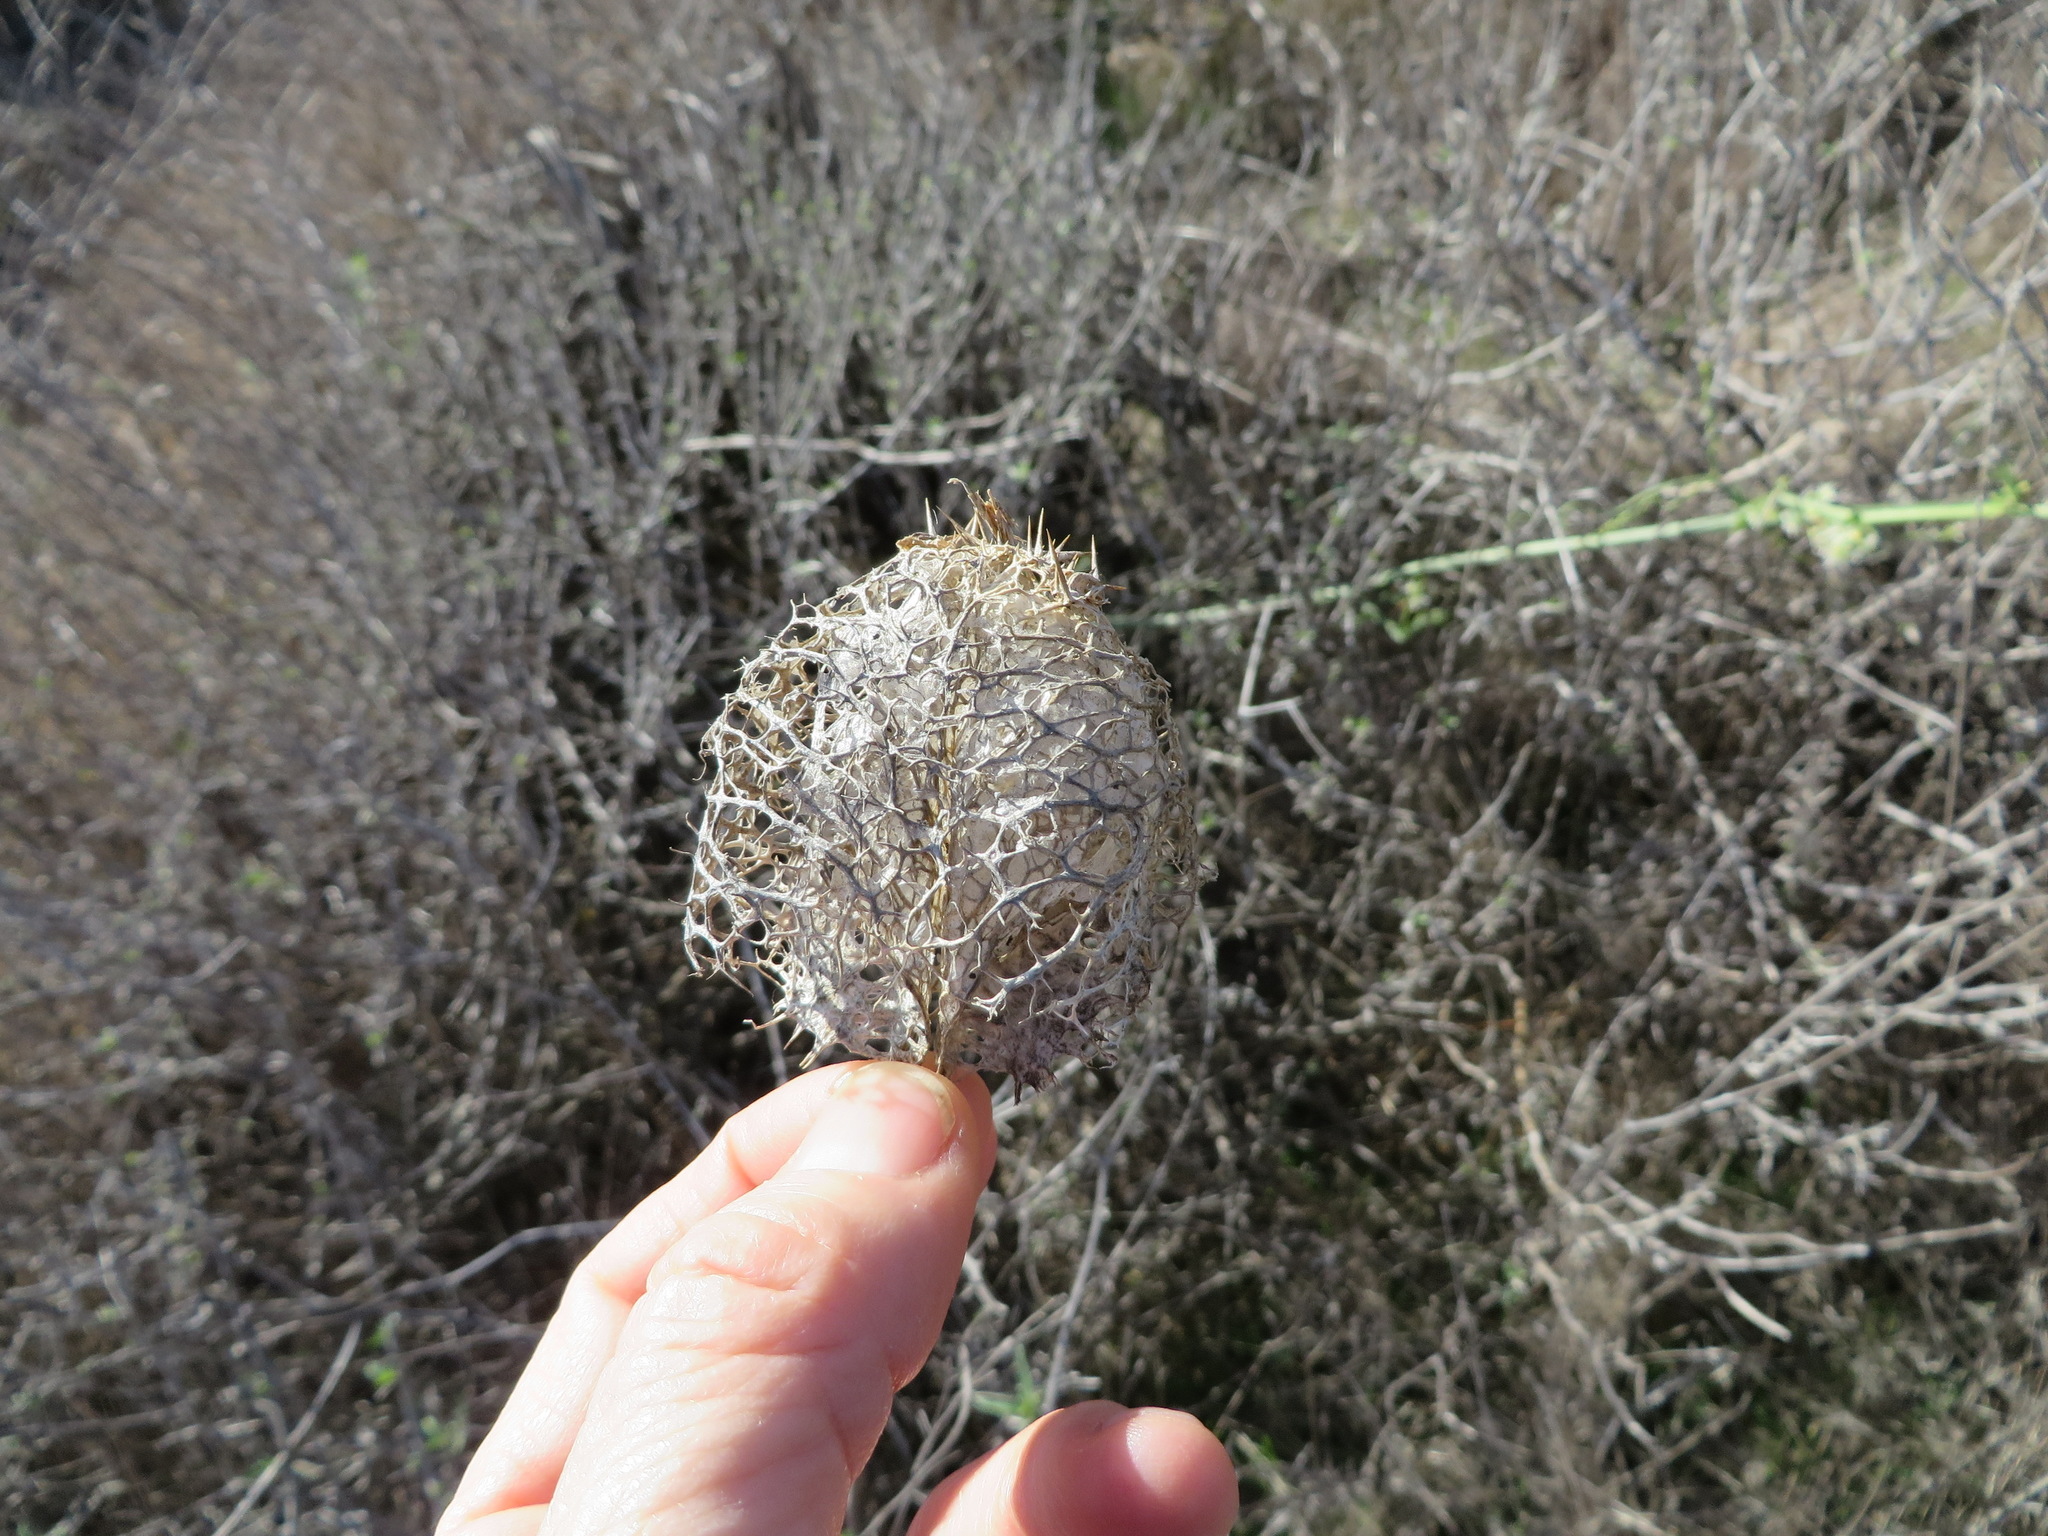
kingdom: Plantae
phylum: Tracheophyta
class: Magnoliopsida
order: Cucurbitales
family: Cucurbitaceae
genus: Marah
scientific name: Marah macrocarpa
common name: Cucamonga manroot
